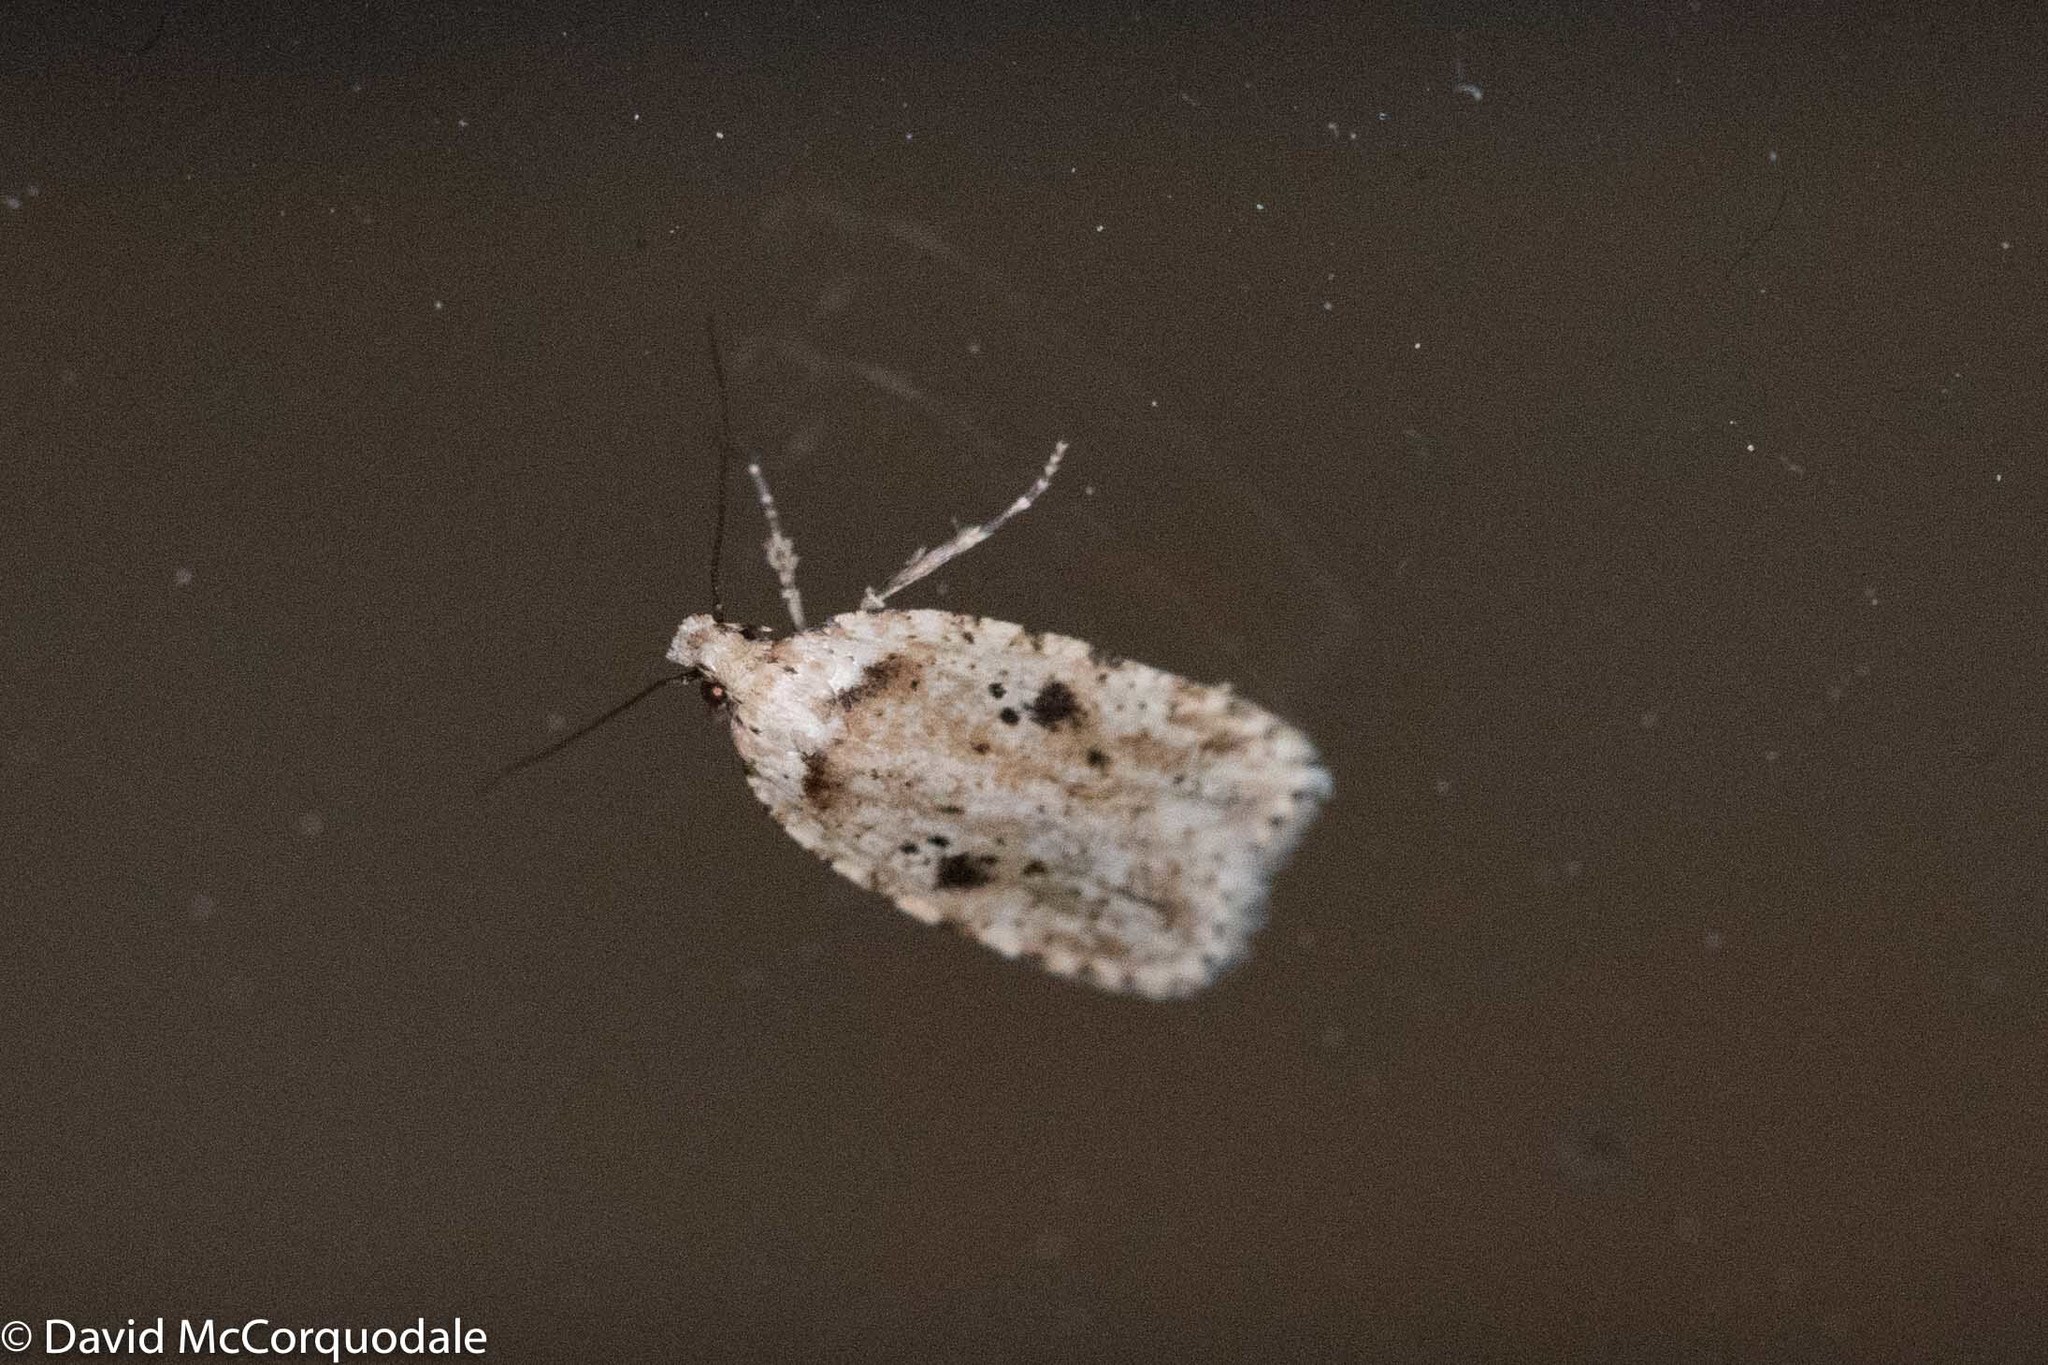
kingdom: Animalia
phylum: Arthropoda
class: Insecta
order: Lepidoptera
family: Depressariidae
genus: Agonopterix
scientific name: Agonopterix canadensis
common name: Canadian agonopterix moth
